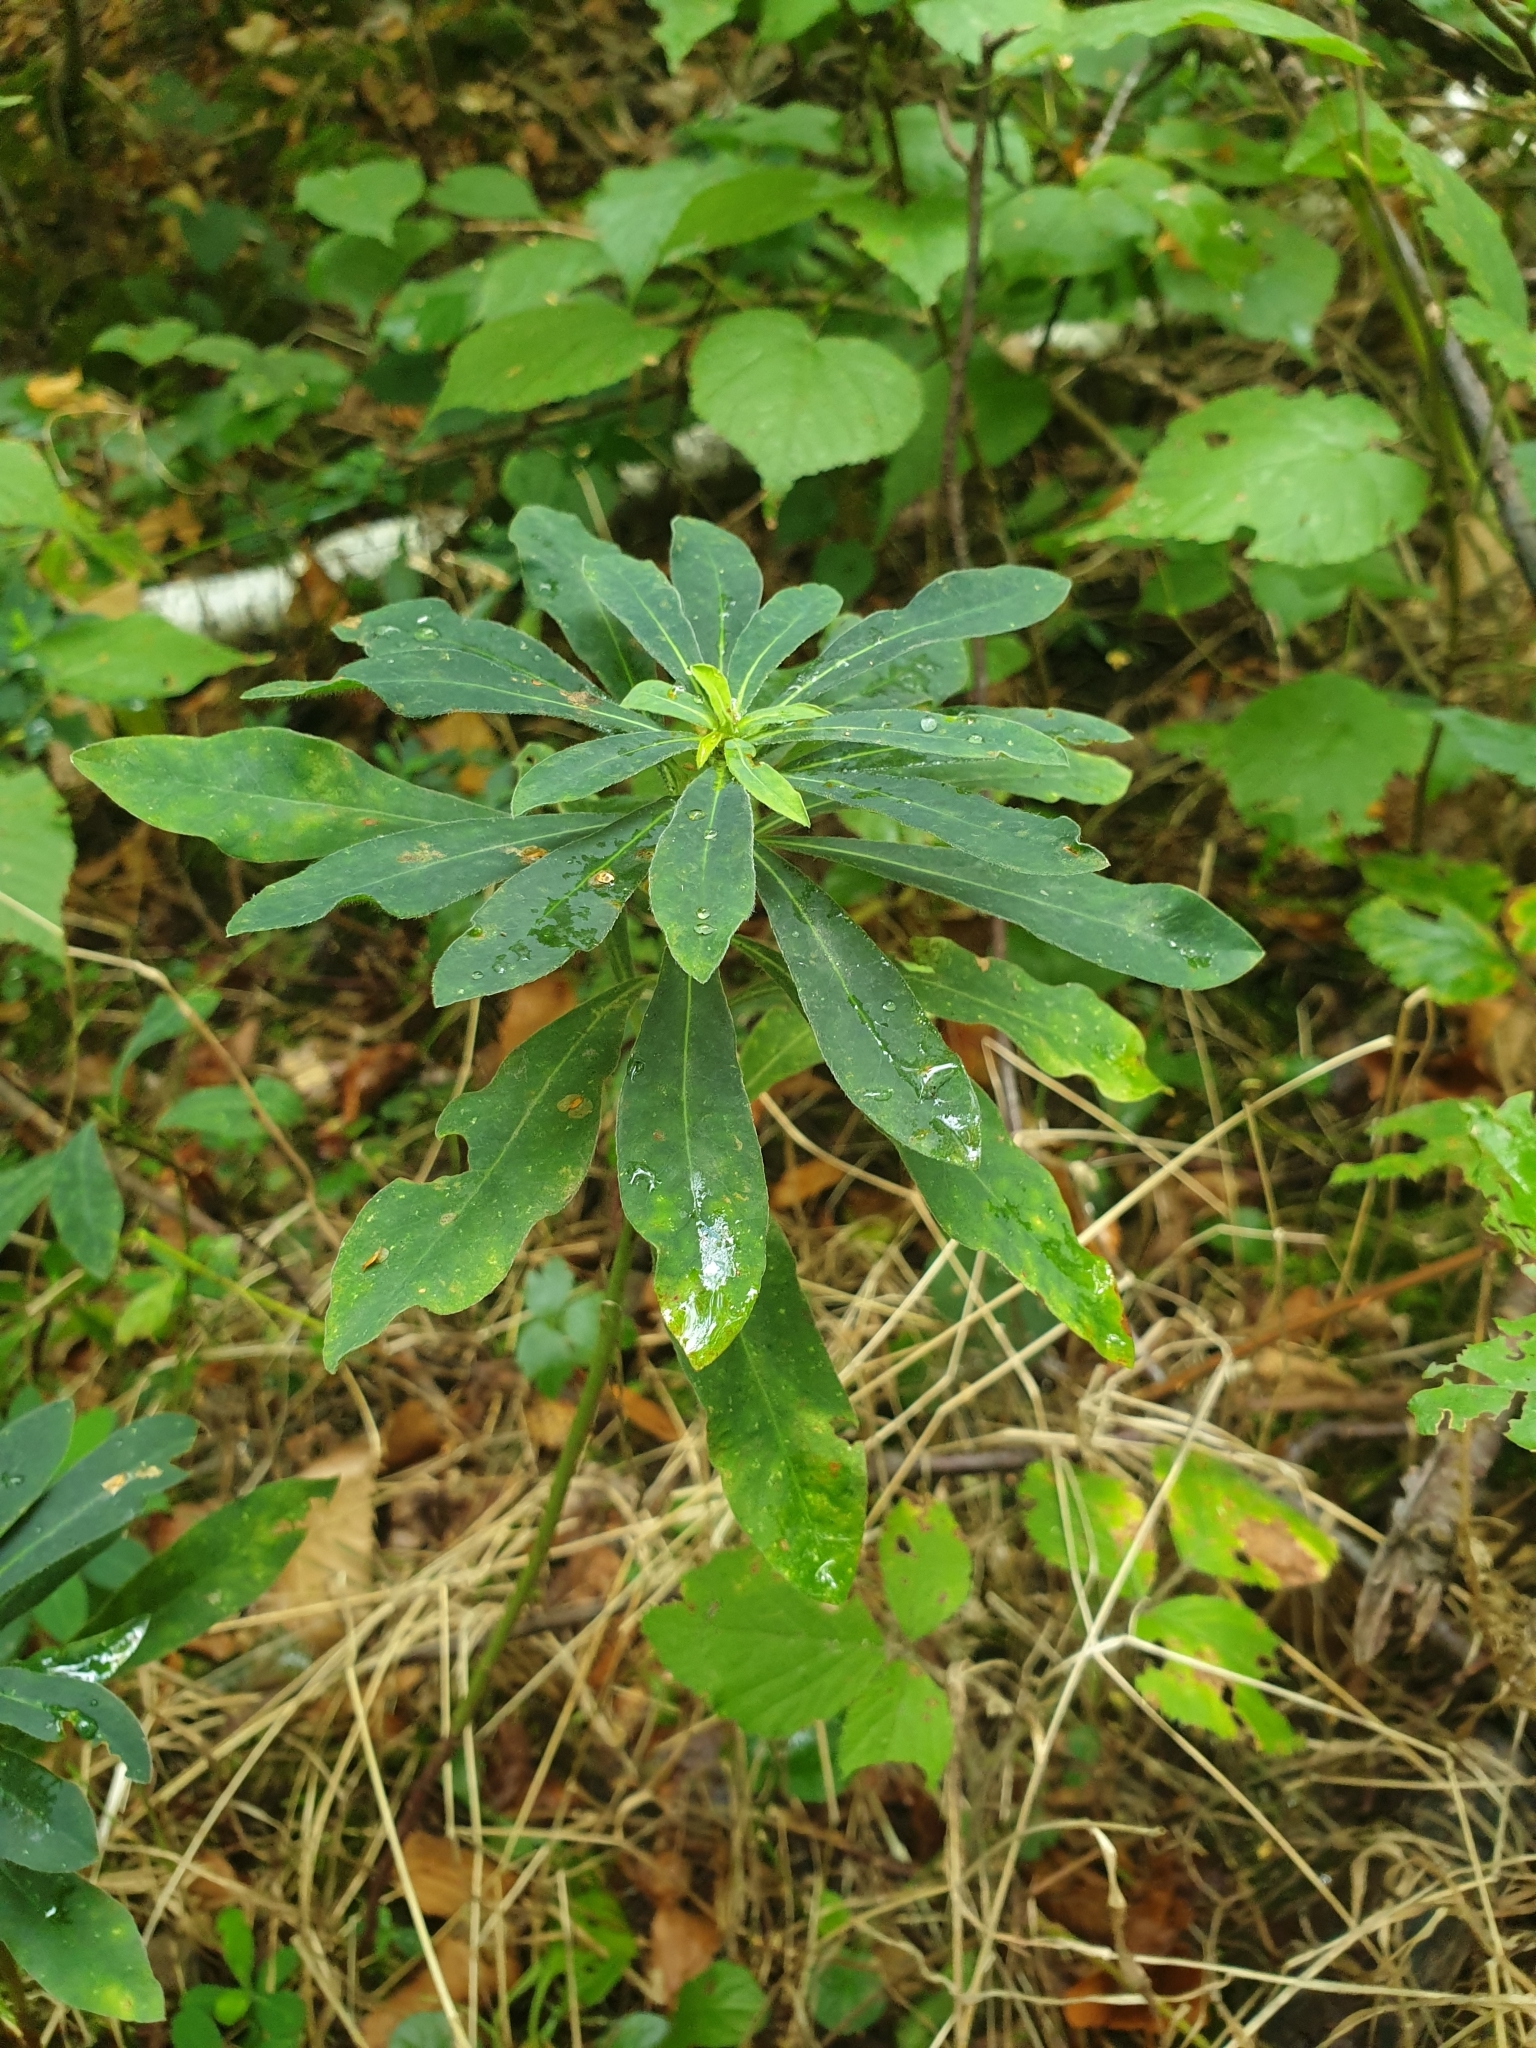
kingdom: Plantae
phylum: Tracheophyta
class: Magnoliopsida
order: Malpighiales
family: Euphorbiaceae
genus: Euphorbia
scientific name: Euphorbia amygdaloides
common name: Wood spurge
